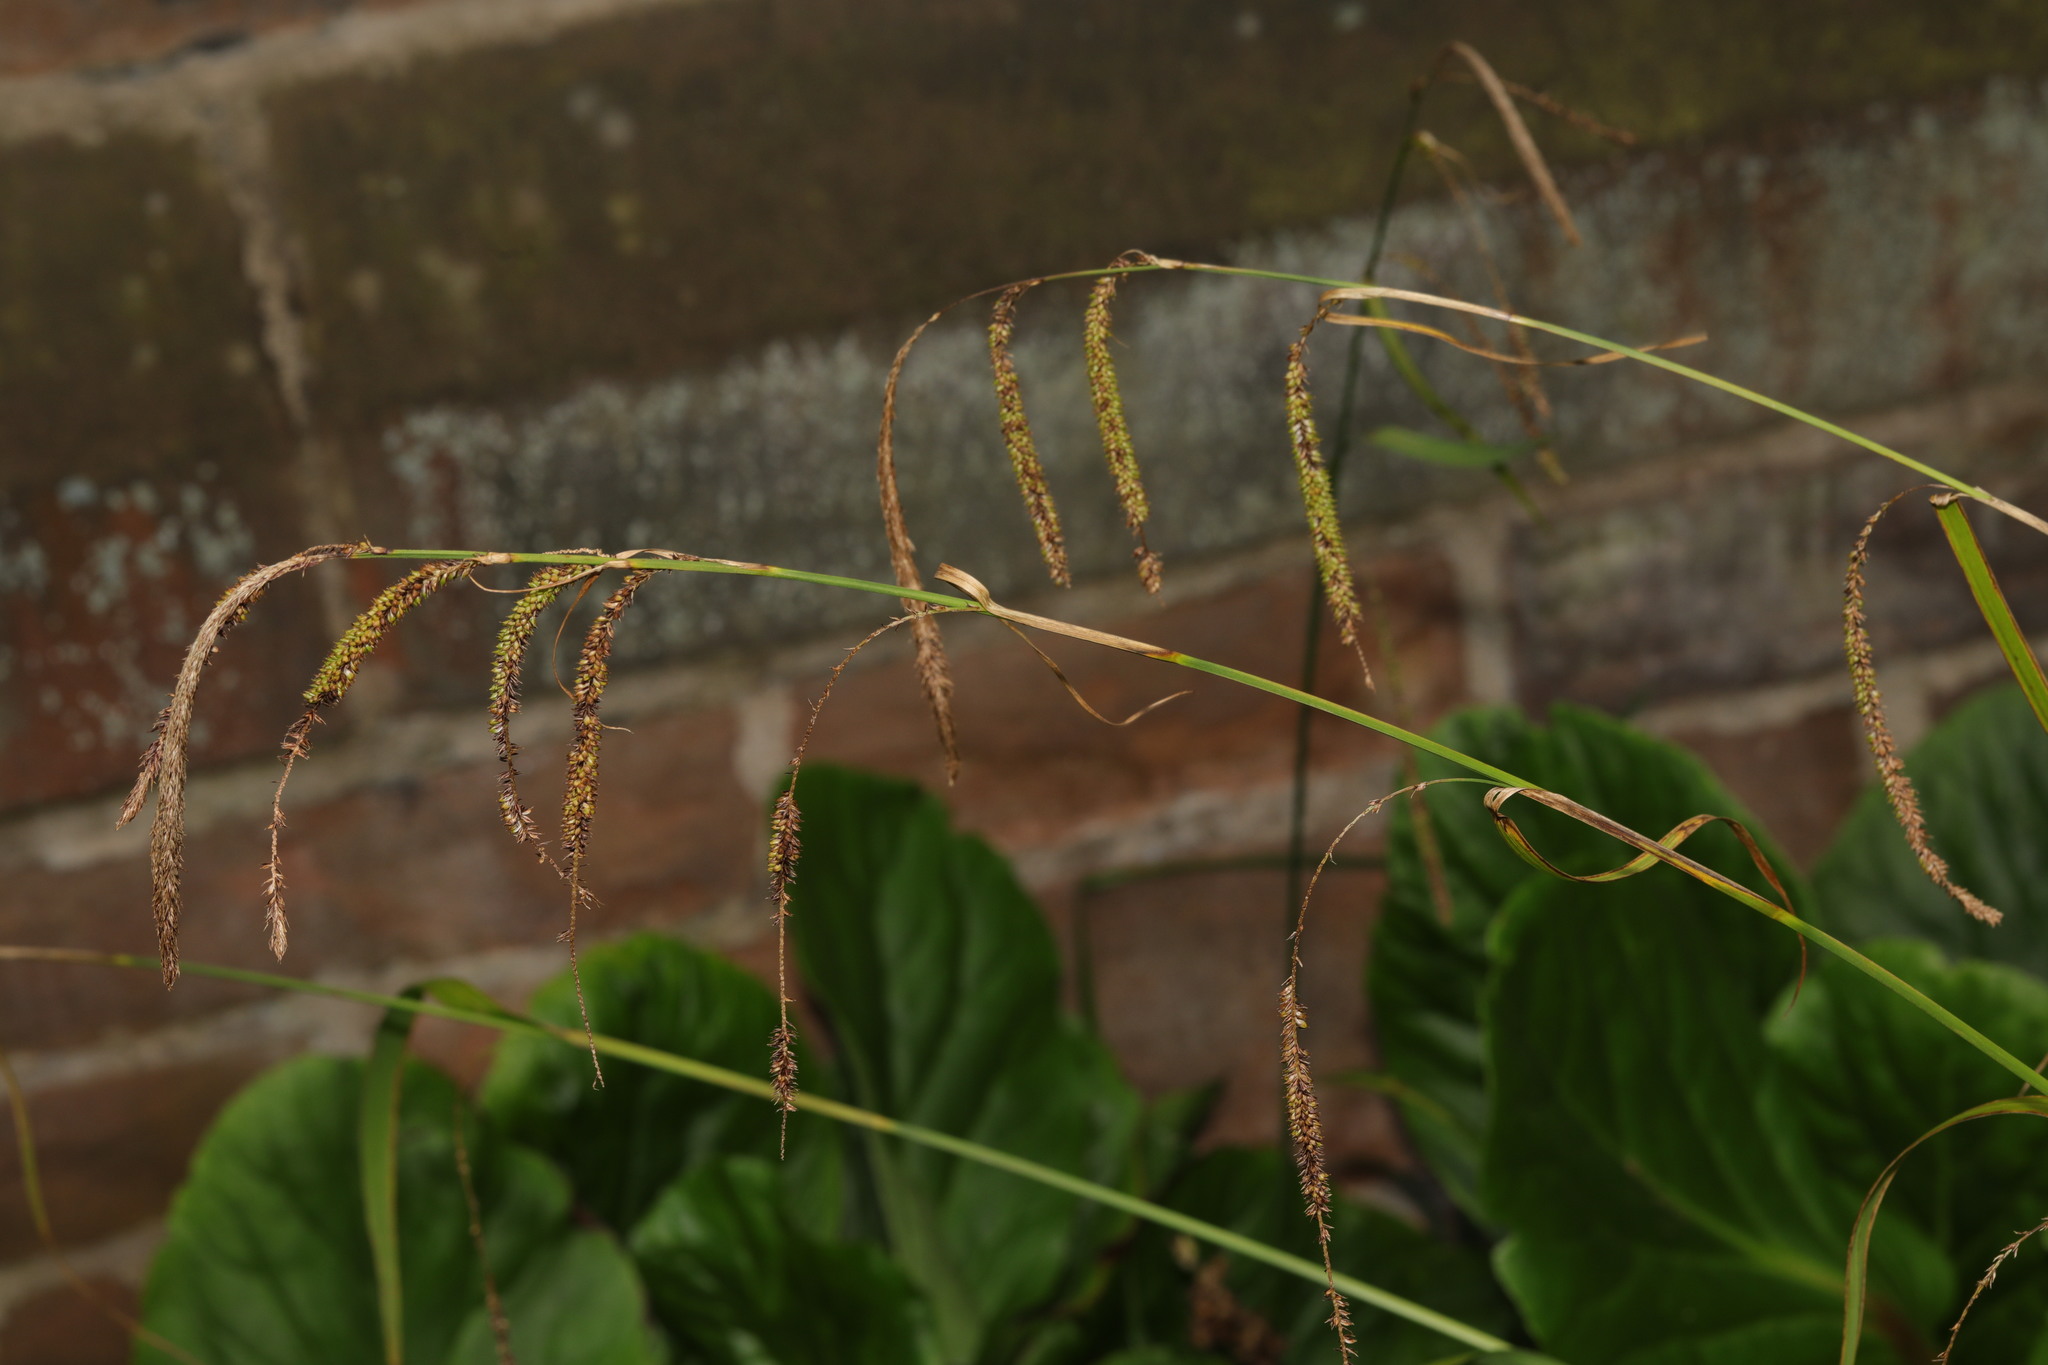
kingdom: Plantae
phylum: Tracheophyta
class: Liliopsida
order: Poales
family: Cyperaceae
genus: Carex
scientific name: Carex pendula
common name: Pendulous sedge
